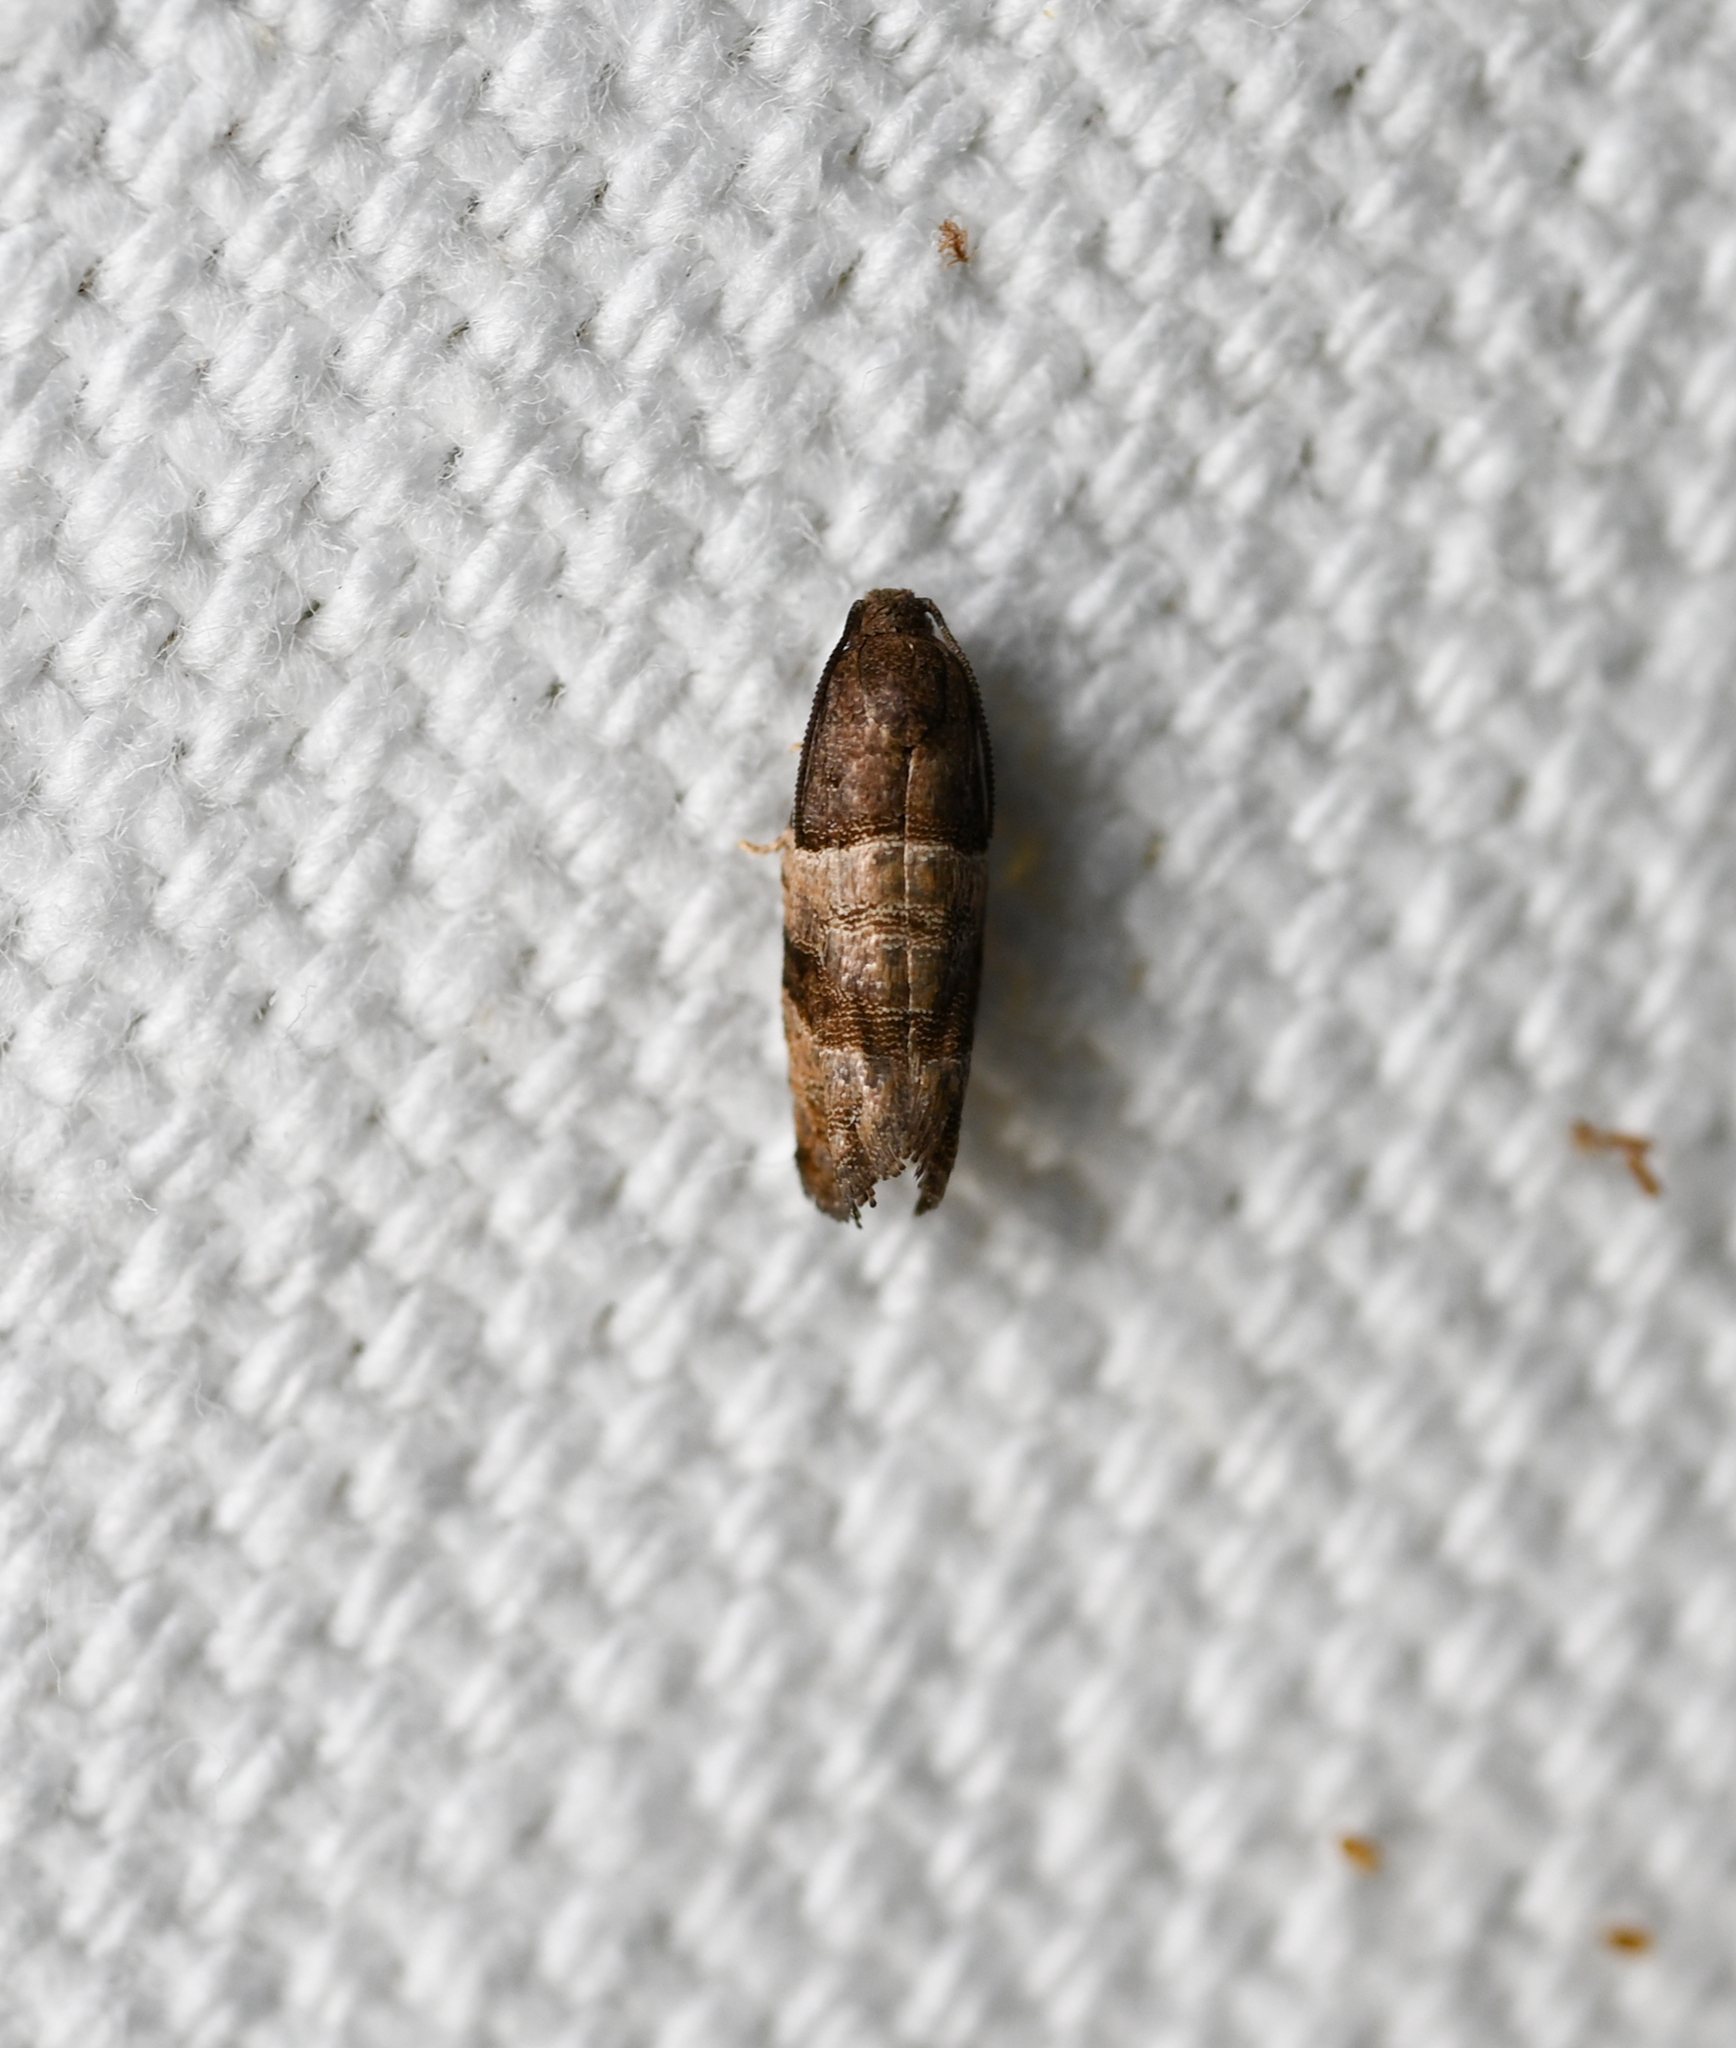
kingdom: Animalia
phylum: Arthropoda
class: Insecta
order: Lepidoptera
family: Tortricidae
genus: Larisa
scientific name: Larisa subsolana
